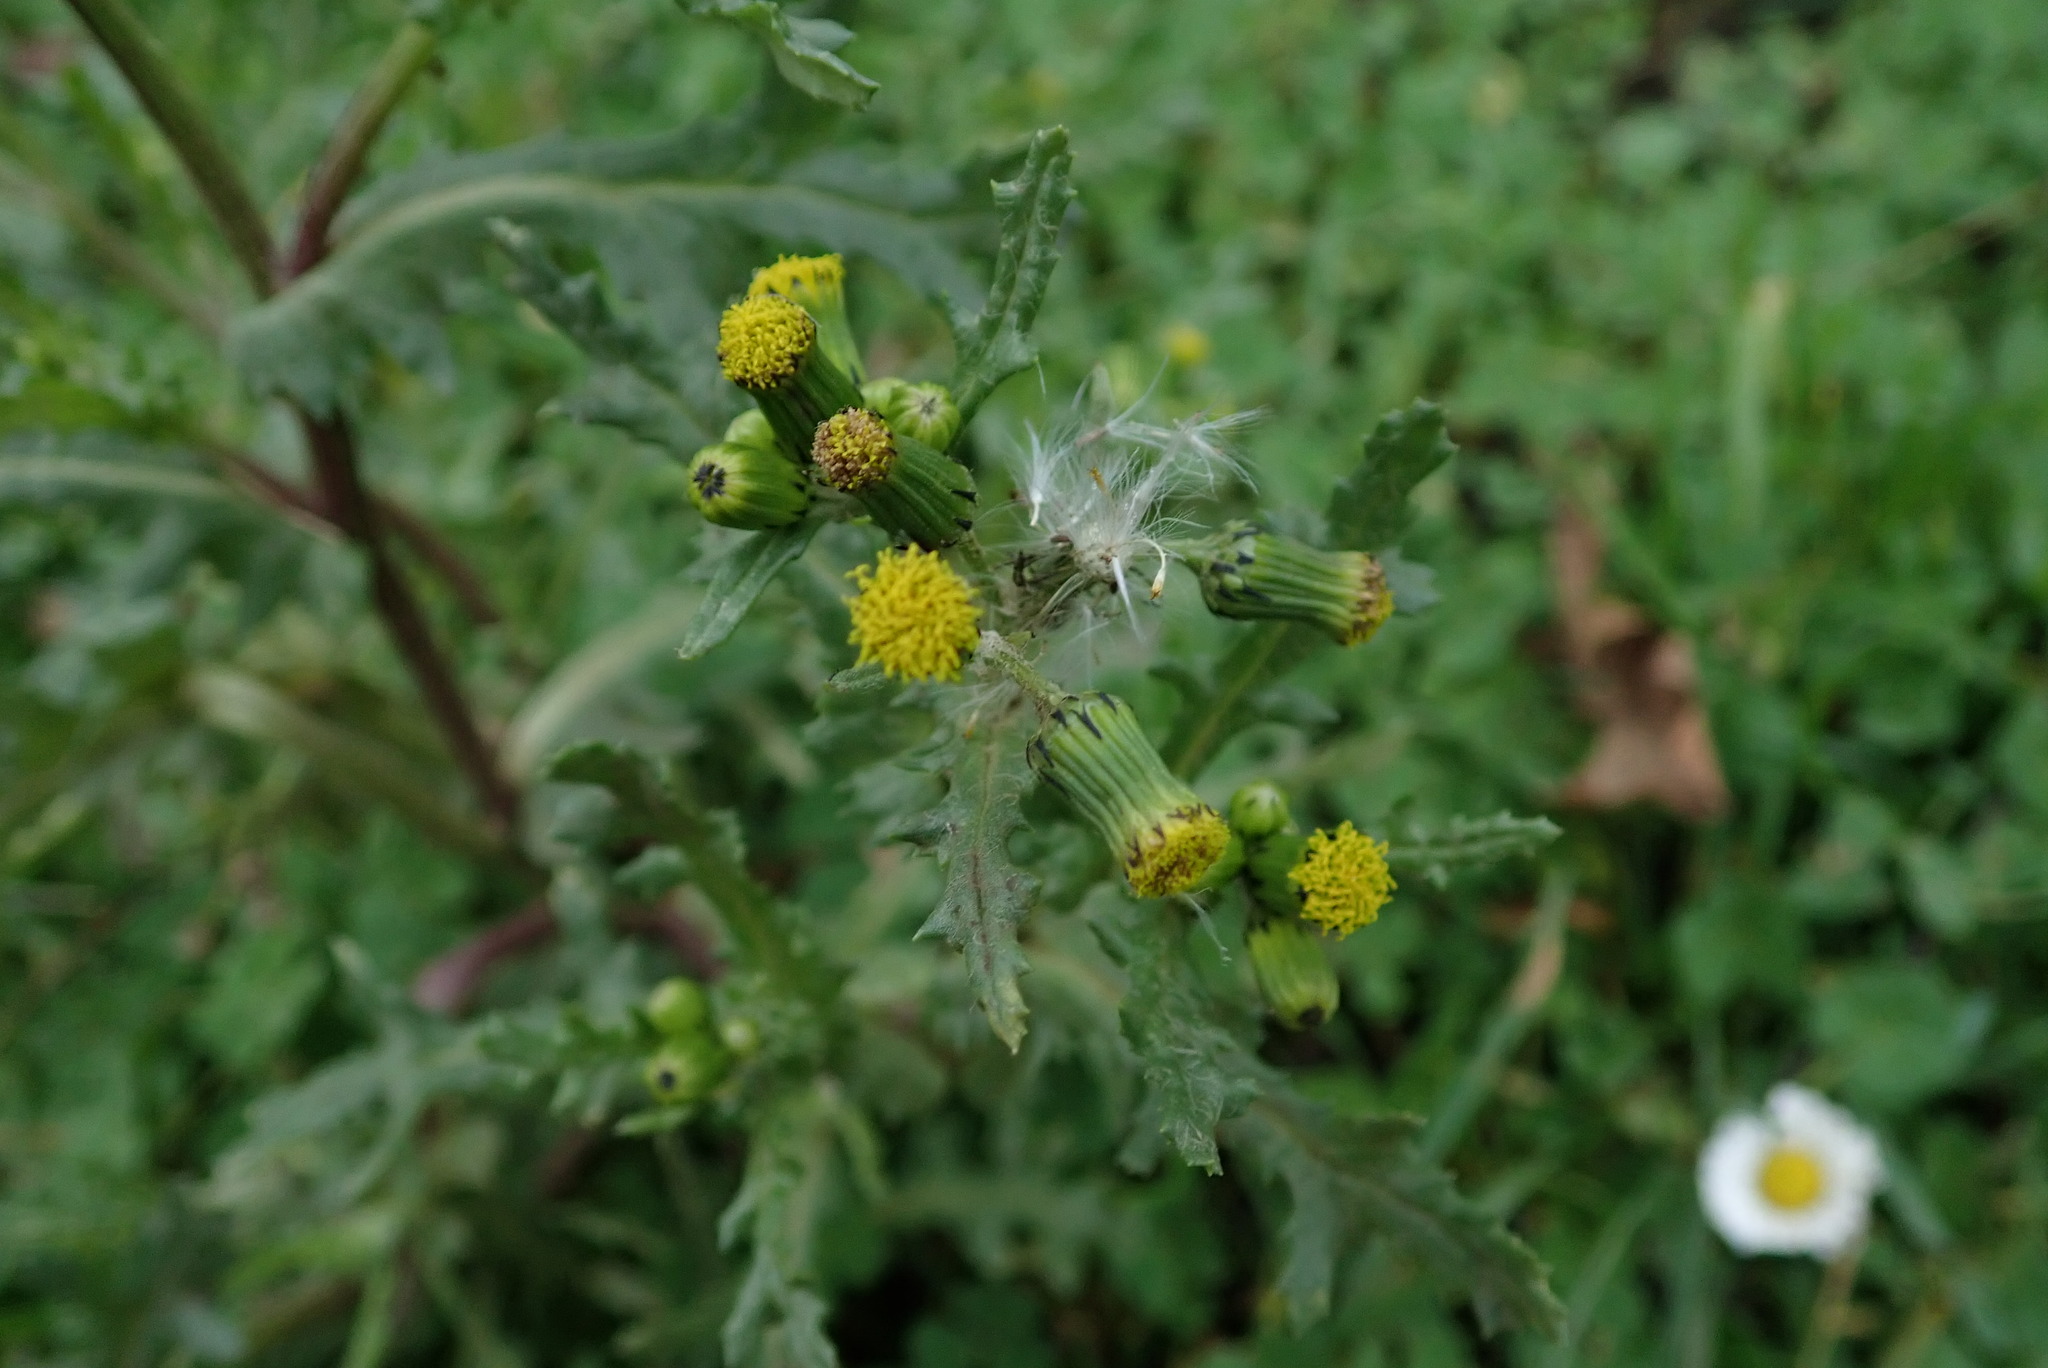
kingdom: Plantae
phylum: Tracheophyta
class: Magnoliopsida
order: Asterales
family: Asteraceae
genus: Senecio
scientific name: Senecio vulgaris
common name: Old-man-in-the-spring
